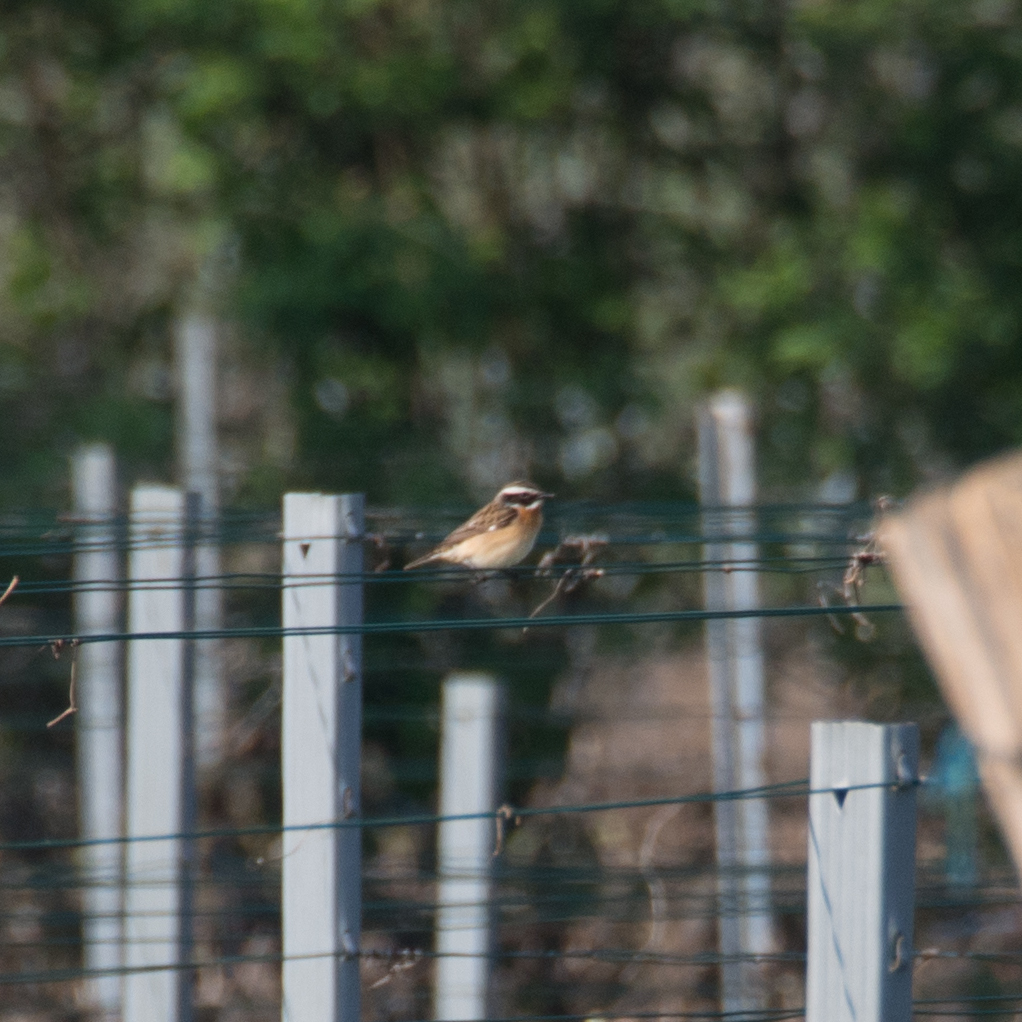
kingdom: Animalia
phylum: Chordata
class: Aves
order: Passeriformes
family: Muscicapidae
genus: Saxicola
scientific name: Saxicola rubetra
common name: Whinchat
